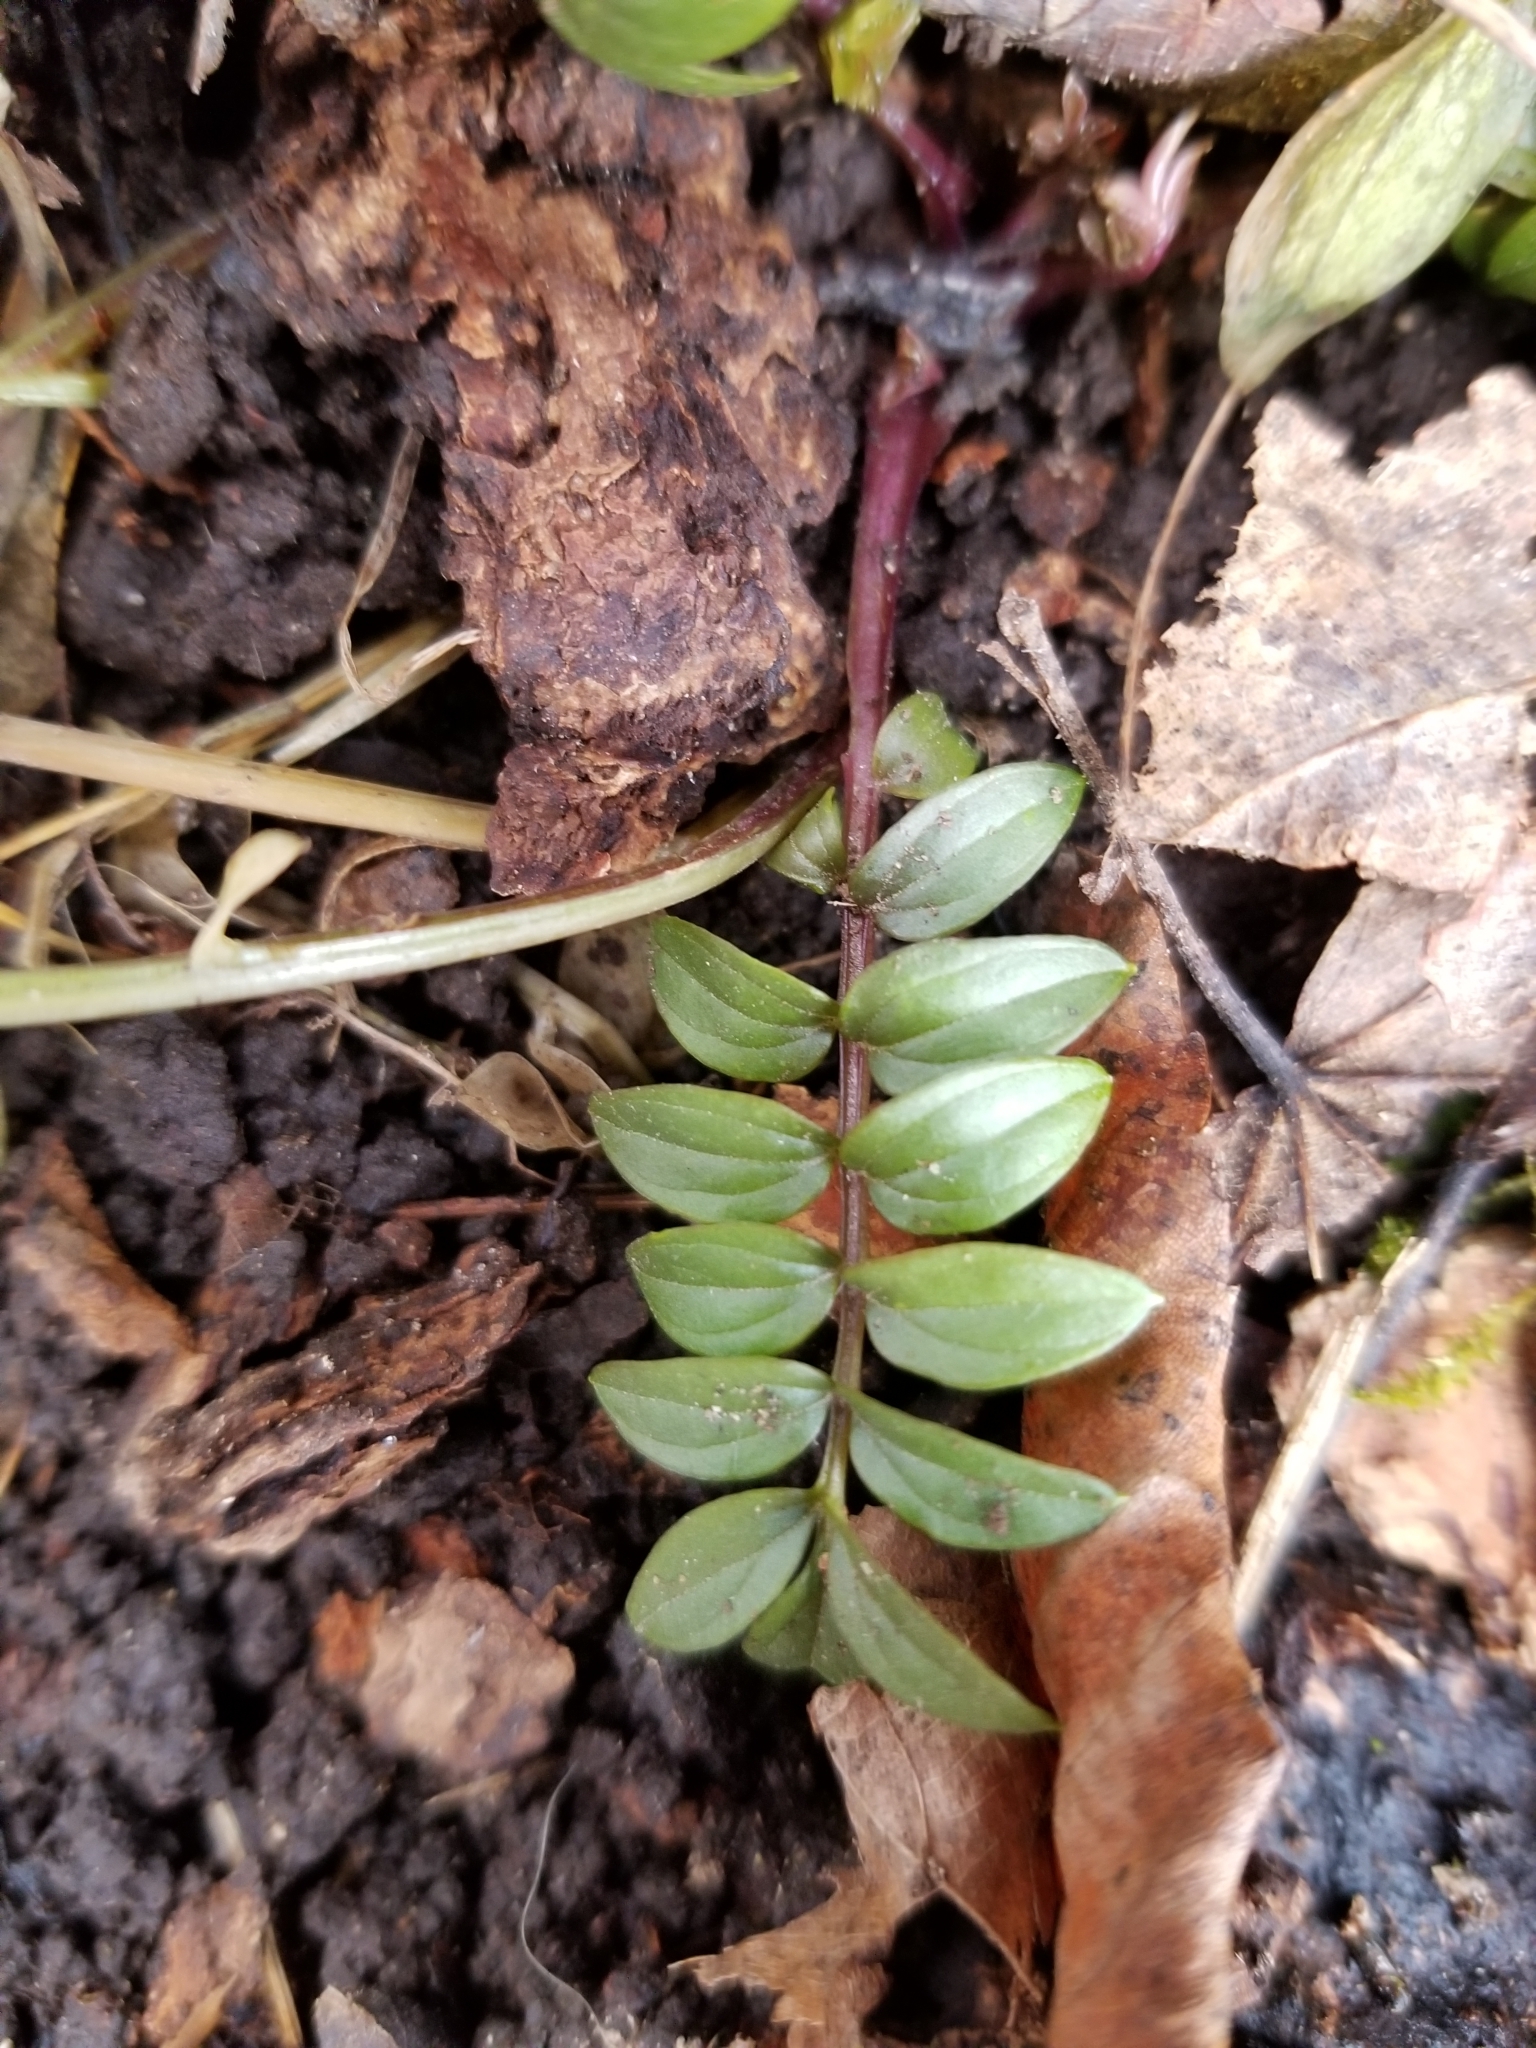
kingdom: Plantae
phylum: Tracheophyta
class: Magnoliopsida
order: Ericales
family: Polemoniaceae
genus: Polemonium
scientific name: Polemonium reptans
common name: Creeping jacob's-ladder
